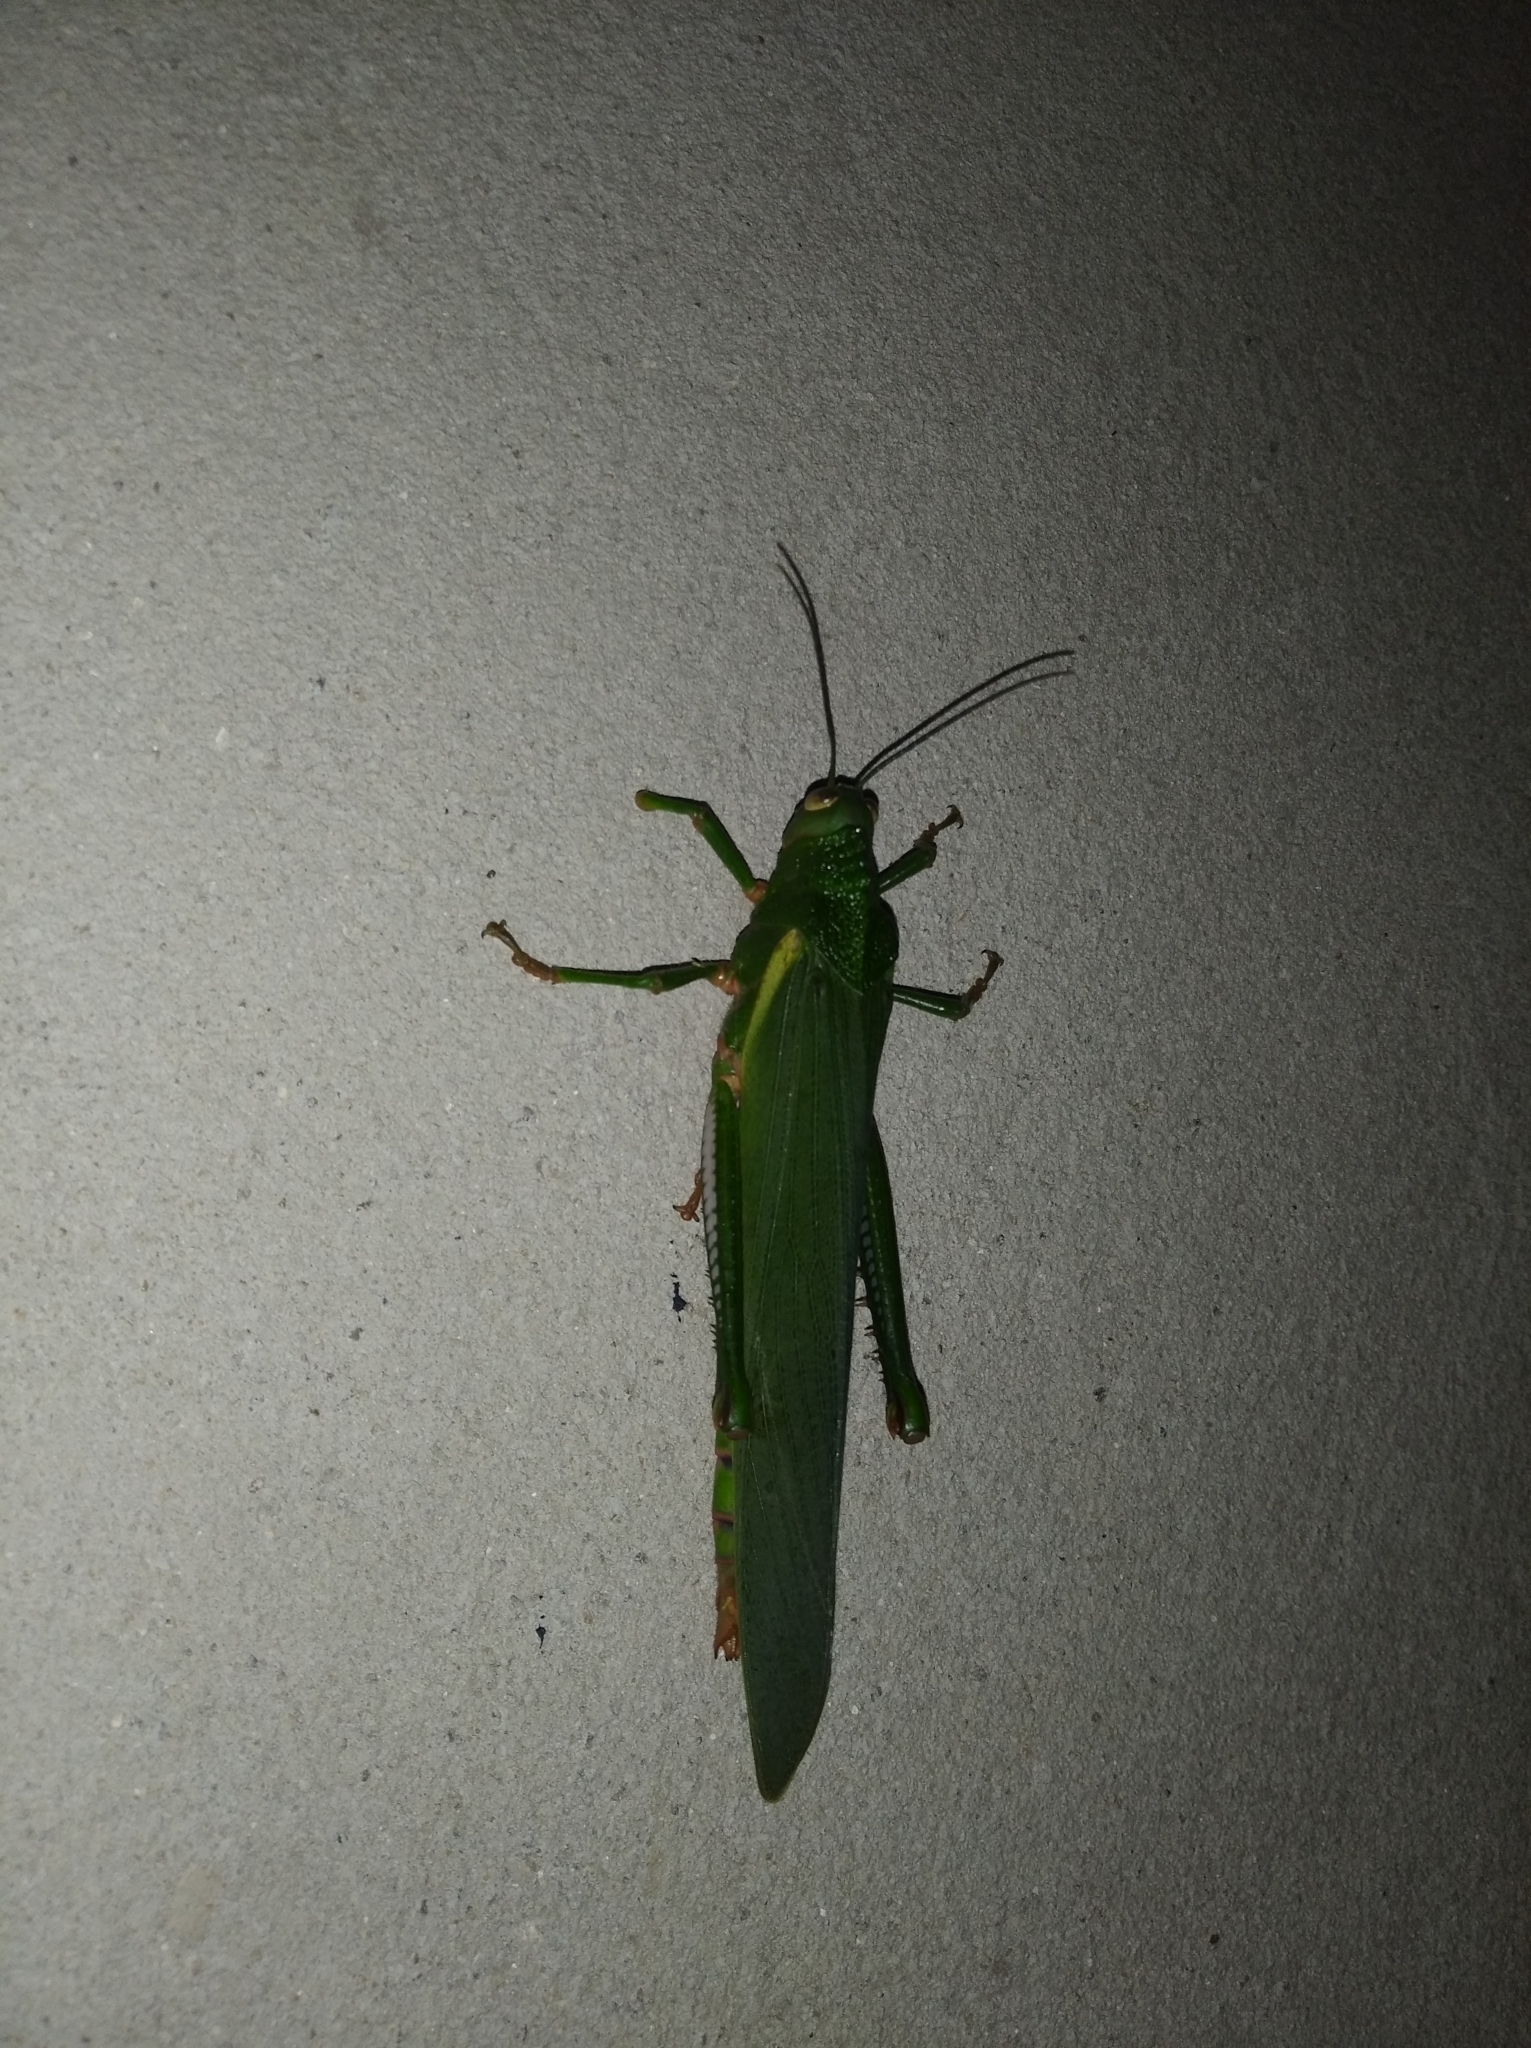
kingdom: Animalia
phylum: Arthropoda
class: Insecta
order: Orthoptera
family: Romaleidae
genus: Titanacris
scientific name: Titanacris albipes
